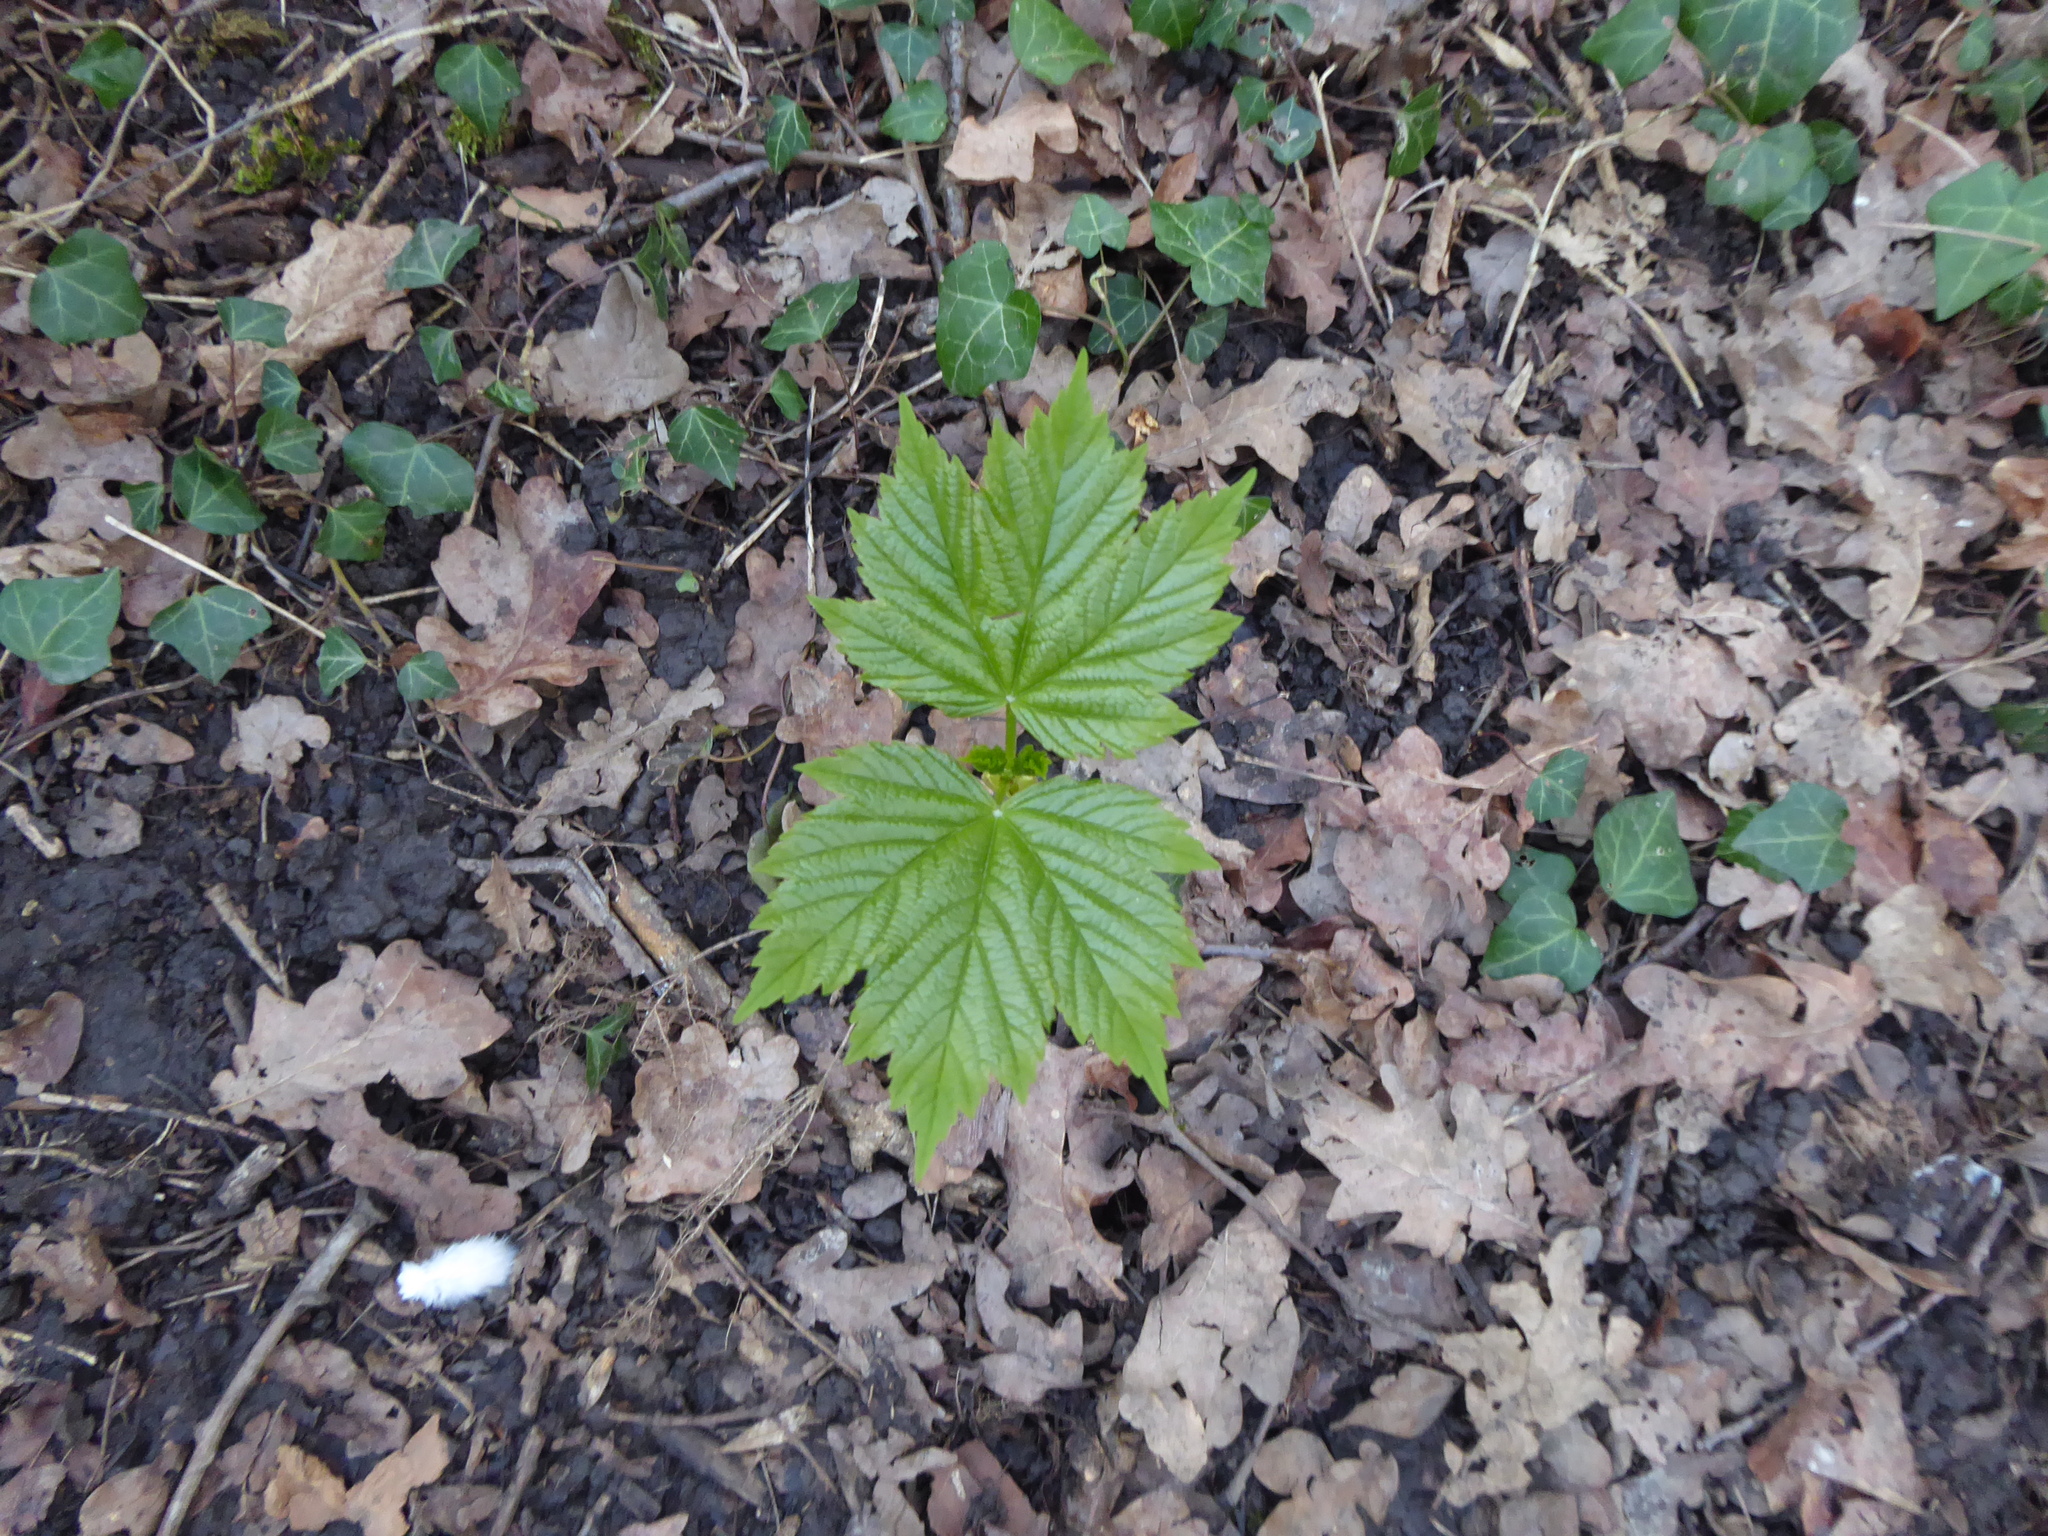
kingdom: Plantae
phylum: Tracheophyta
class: Magnoliopsida
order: Sapindales
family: Sapindaceae
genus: Acer
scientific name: Acer pseudoplatanus
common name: Sycamore
